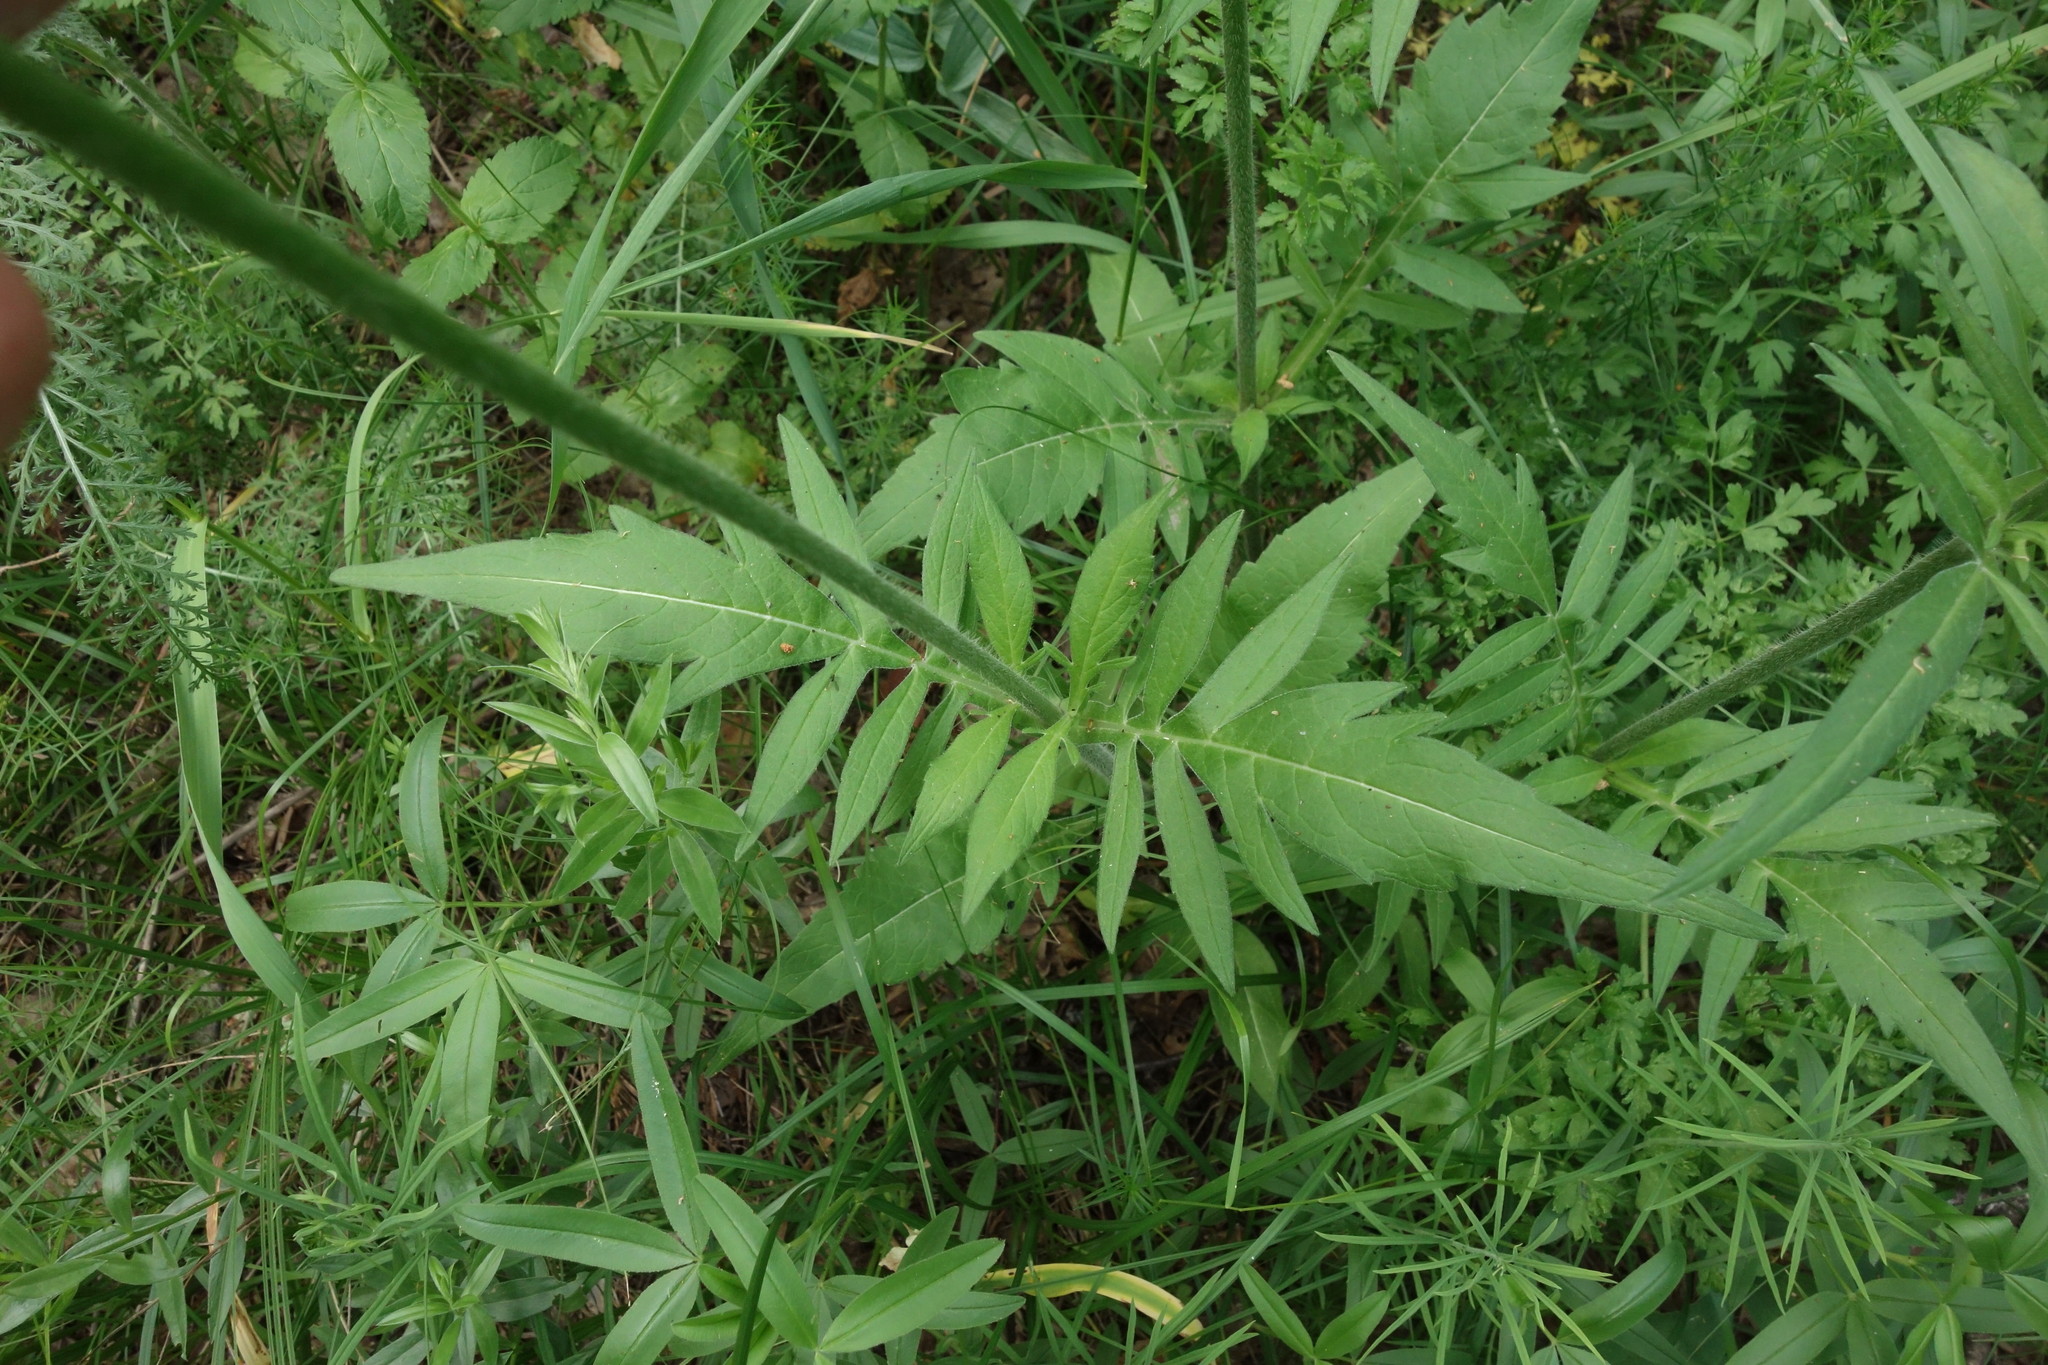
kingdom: Plantae
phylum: Tracheophyta
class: Magnoliopsida
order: Dipsacales
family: Caprifoliaceae
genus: Knautia
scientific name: Knautia arvensis
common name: Field scabiosa
